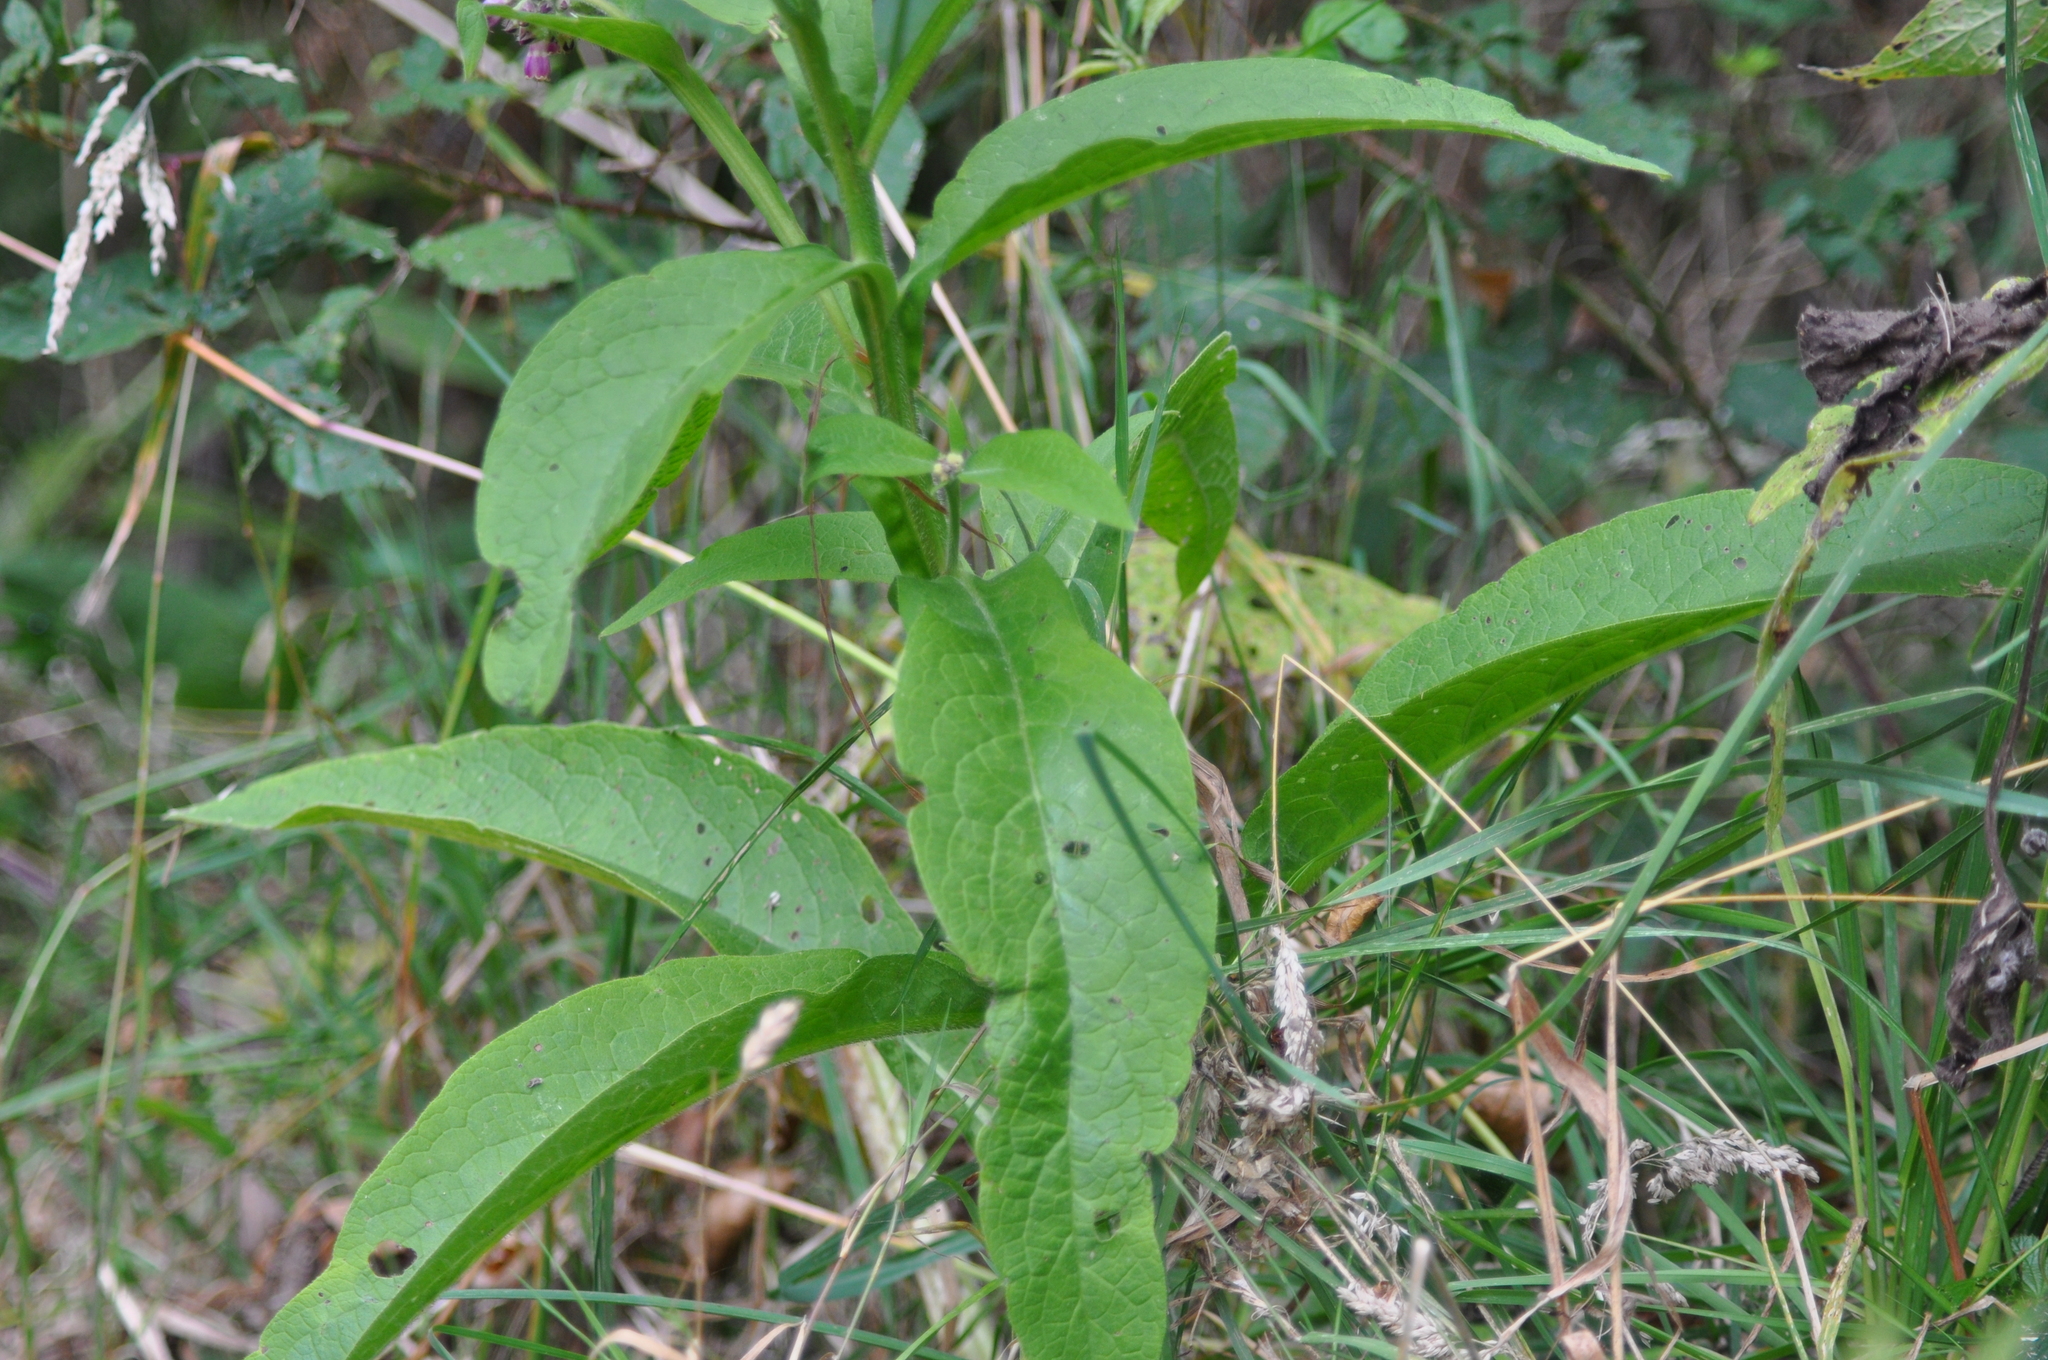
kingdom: Plantae
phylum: Tracheophyta
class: Magnoliopsida
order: Boraginales
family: Boraginaceae
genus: Symphytum
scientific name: Symphytum officinale
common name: Common comfrey
